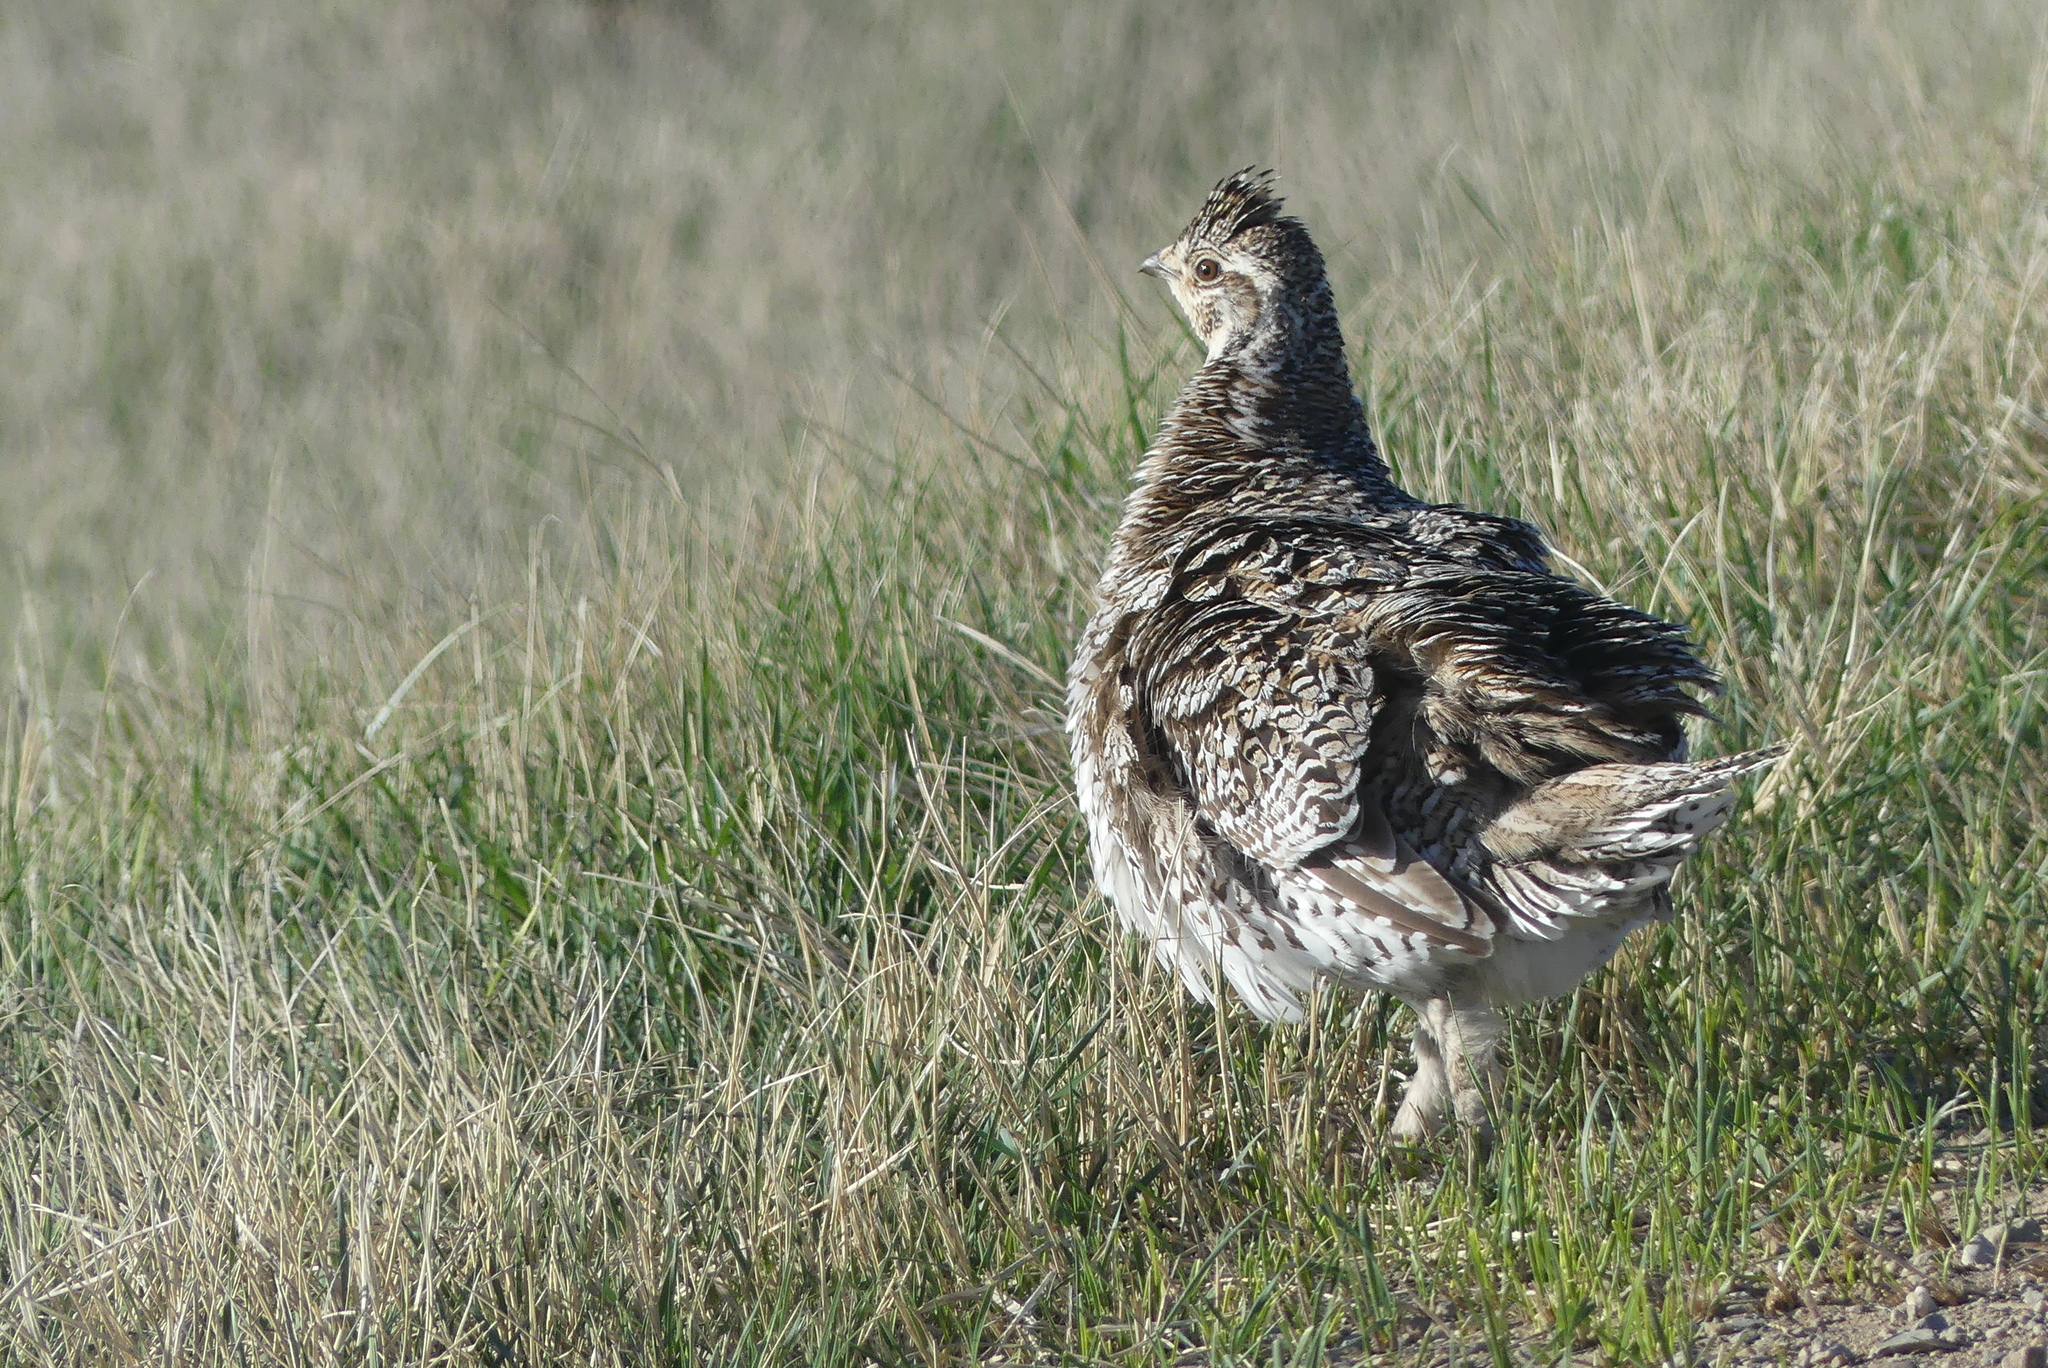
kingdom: Animalia
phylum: Chordata
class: Aves
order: Galliformes
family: Phasianidae
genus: Tympanuchus
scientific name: Tympanuchus phasianellus
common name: Sharp-tailed grouse
